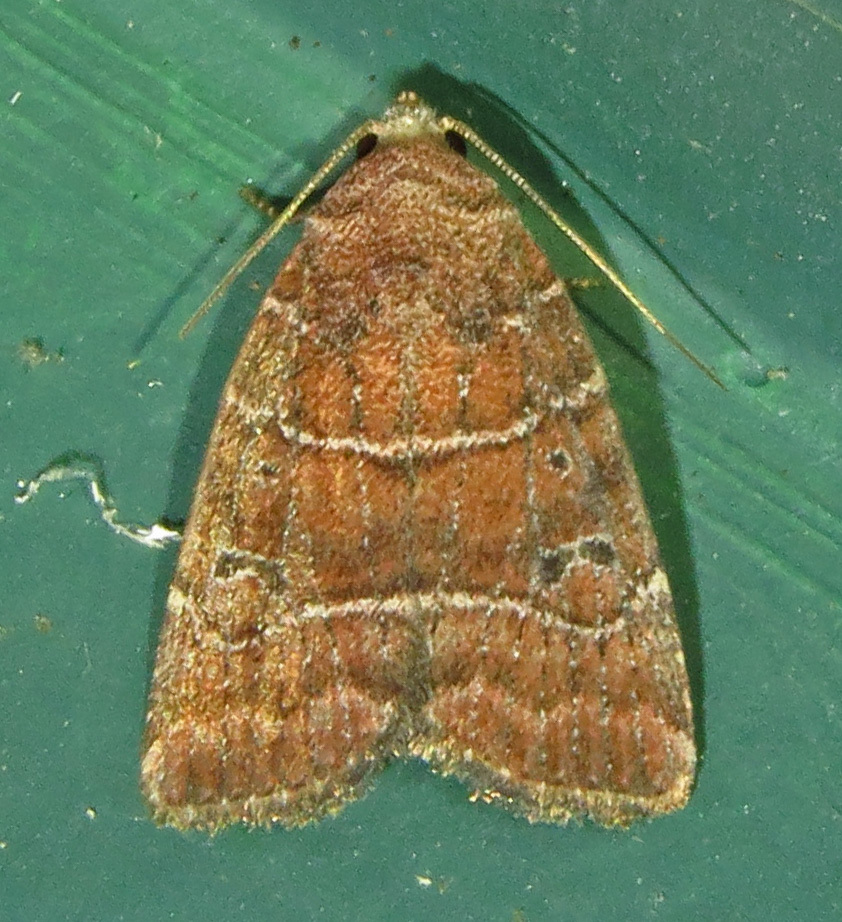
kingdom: Animalia
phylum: Arthropoda
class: Insecta
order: Lepidoptera
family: Noctuidae
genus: Elaphria
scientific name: Elaphria grata
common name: Grateful midget moth
